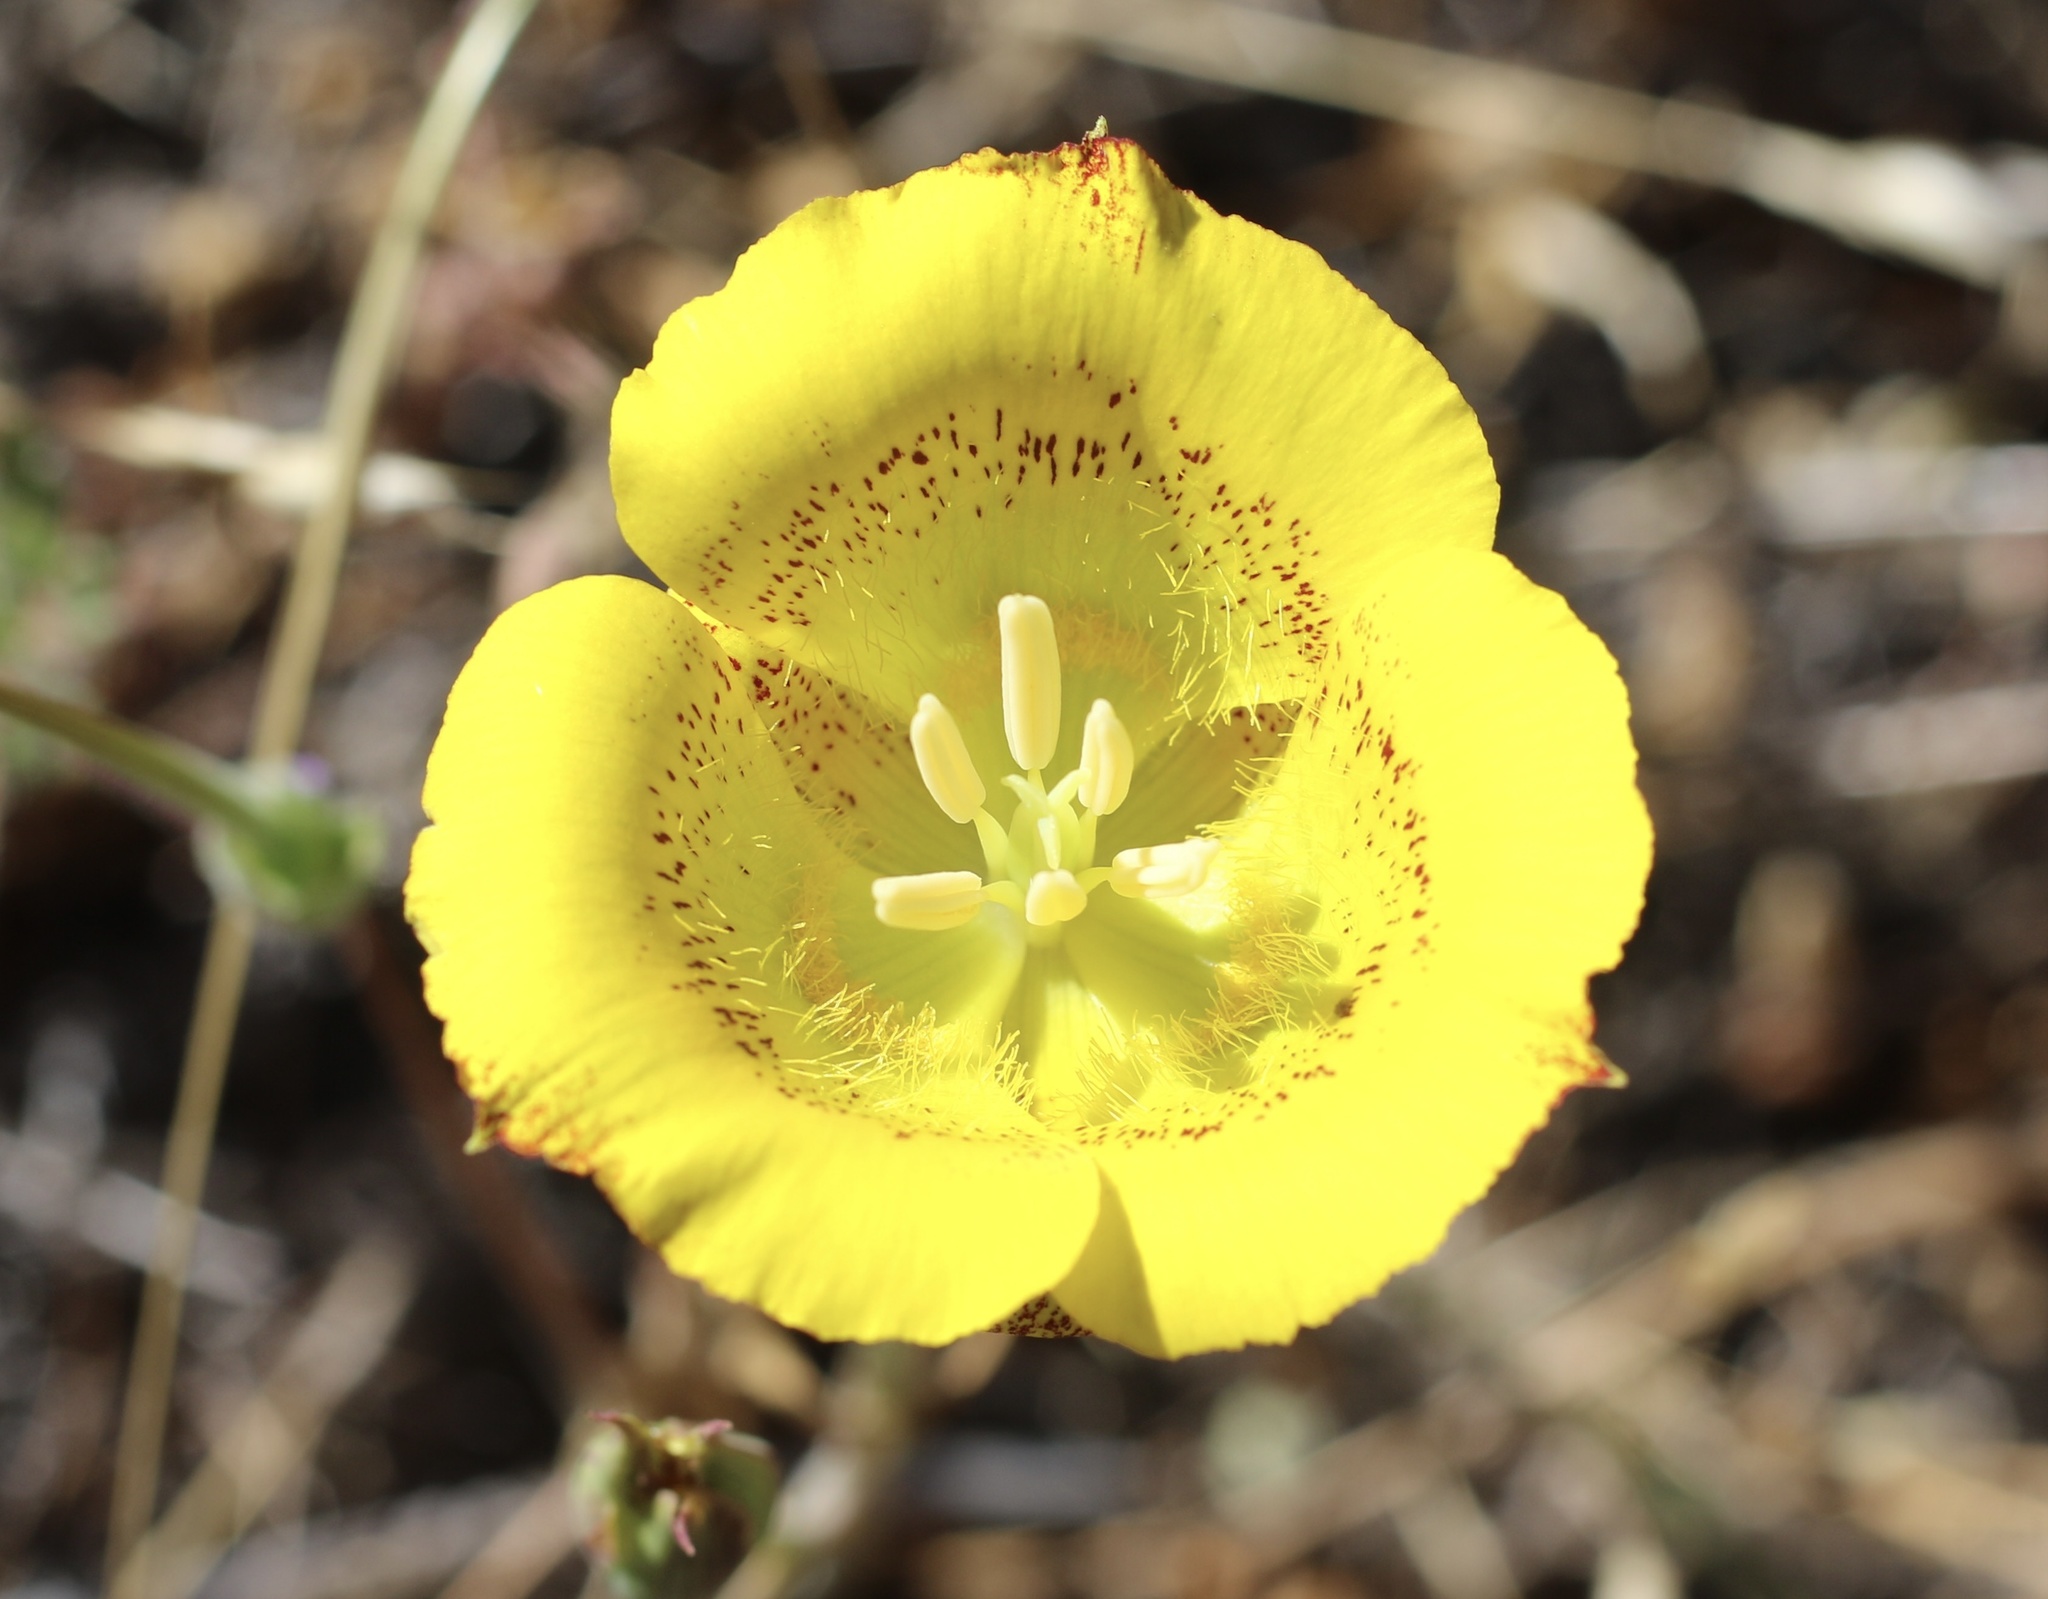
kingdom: Plantae
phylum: Tracheophyta
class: Liliopsida
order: Liliales
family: Liliaceae
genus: Calochortus
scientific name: Calochortus luteus
